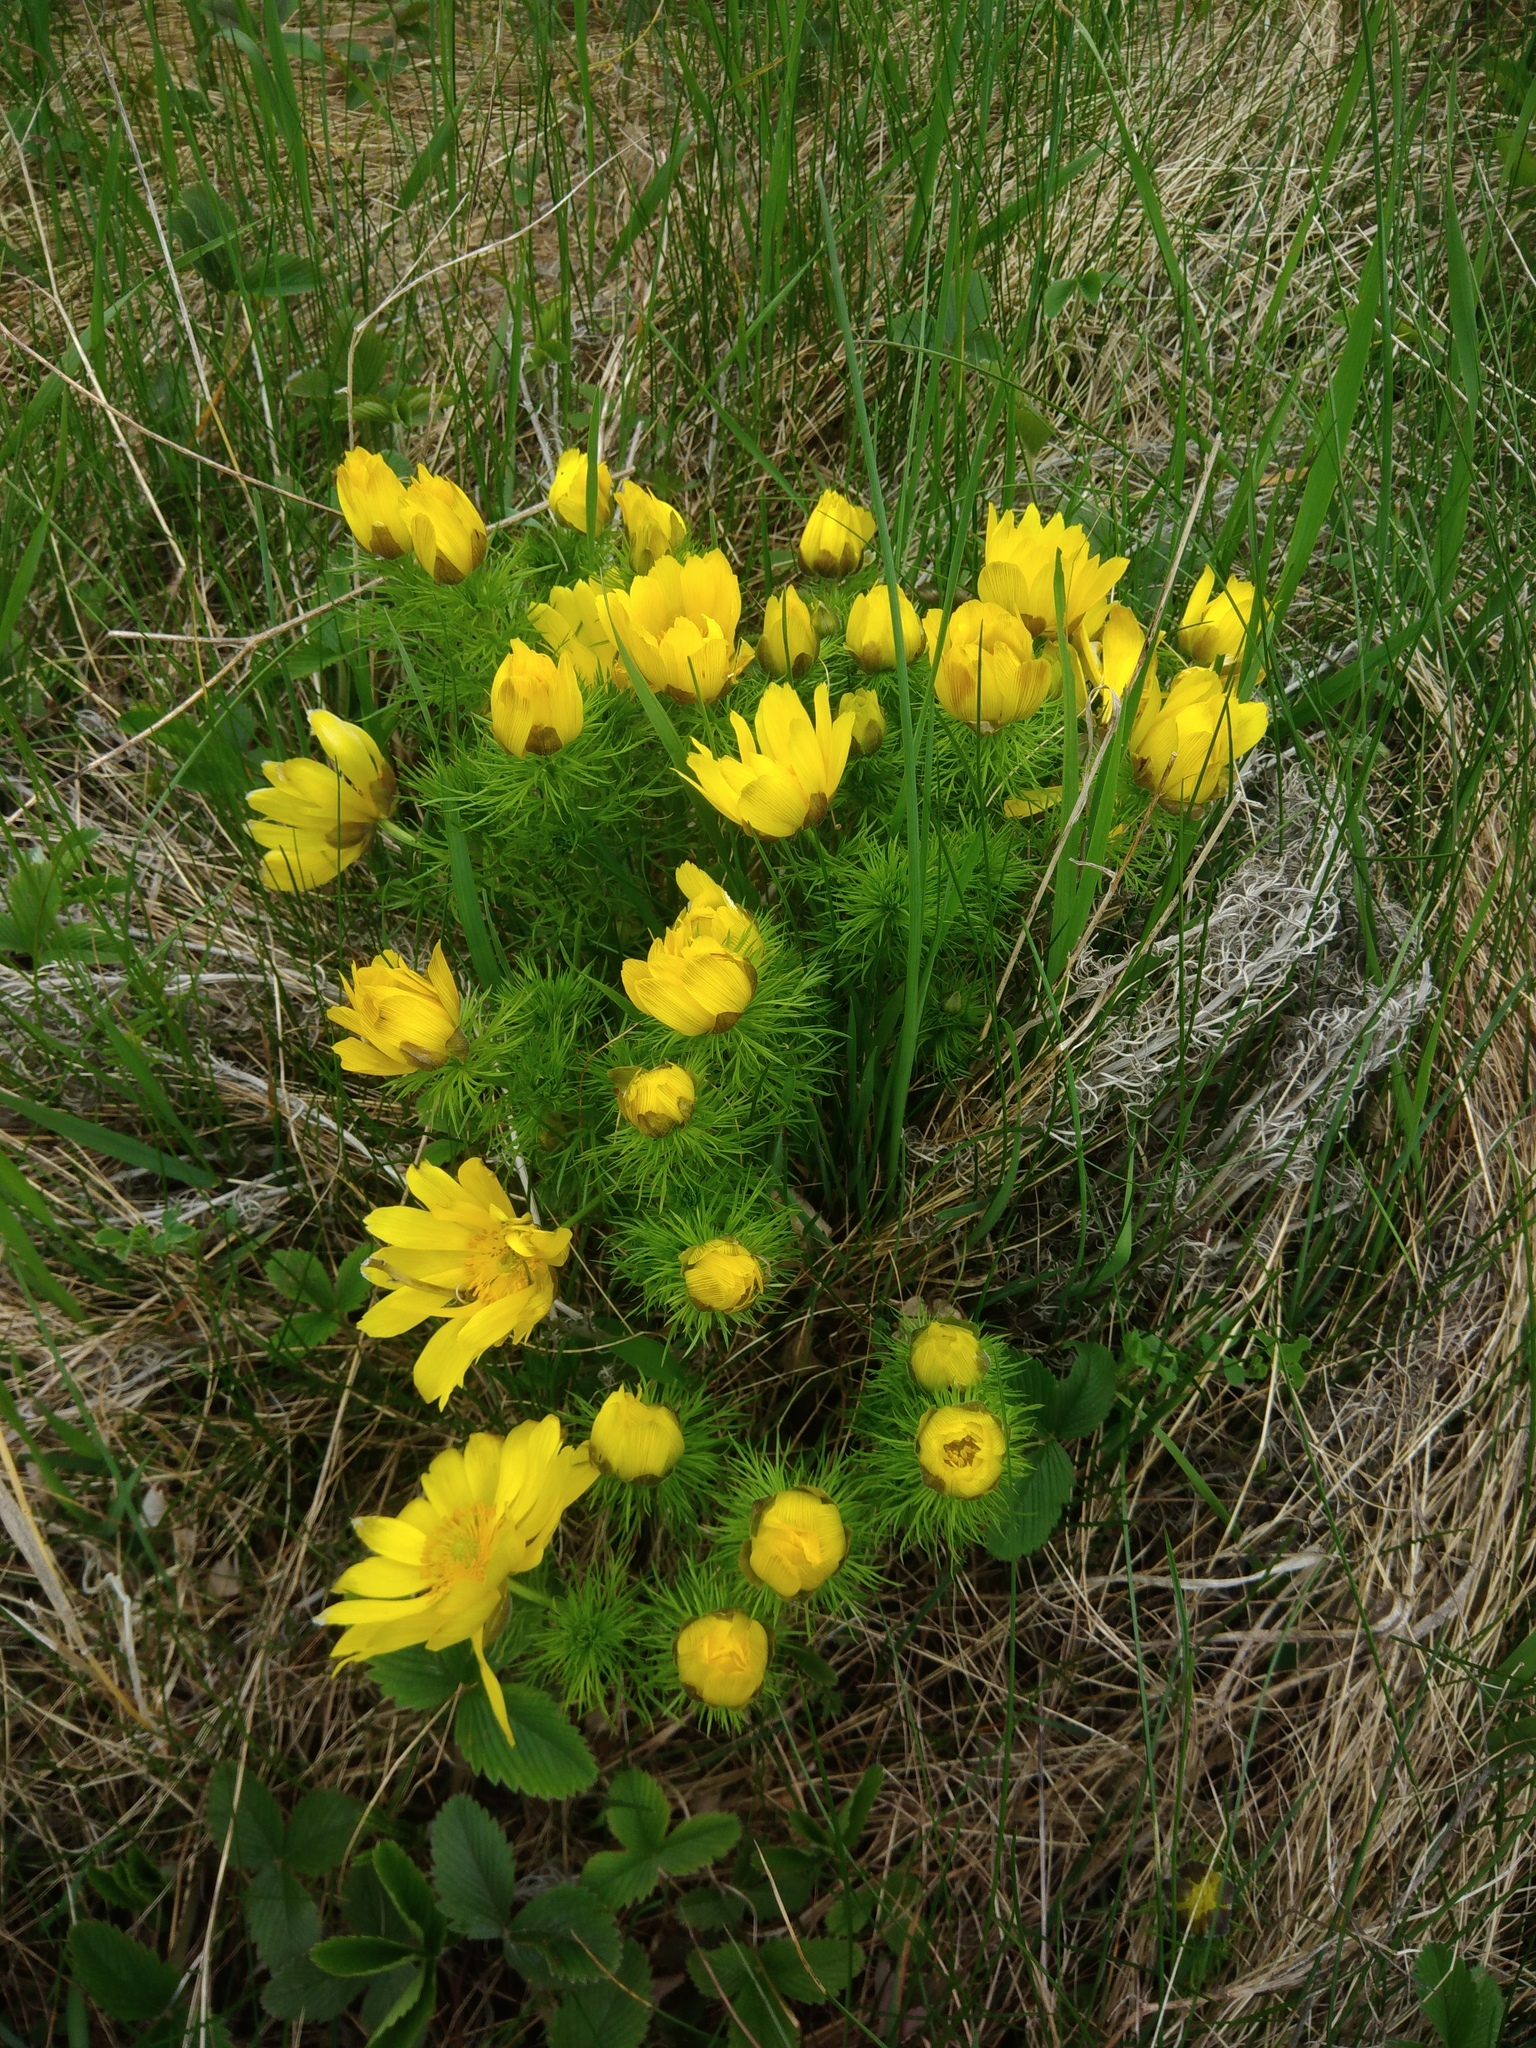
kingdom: Plantae
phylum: Tracheophyta
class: Magnoliopsida
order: Ranunculales
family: Ranunculaceae
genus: Adonis
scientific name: Adonis vernalis
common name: Yellow pheasants-eye
